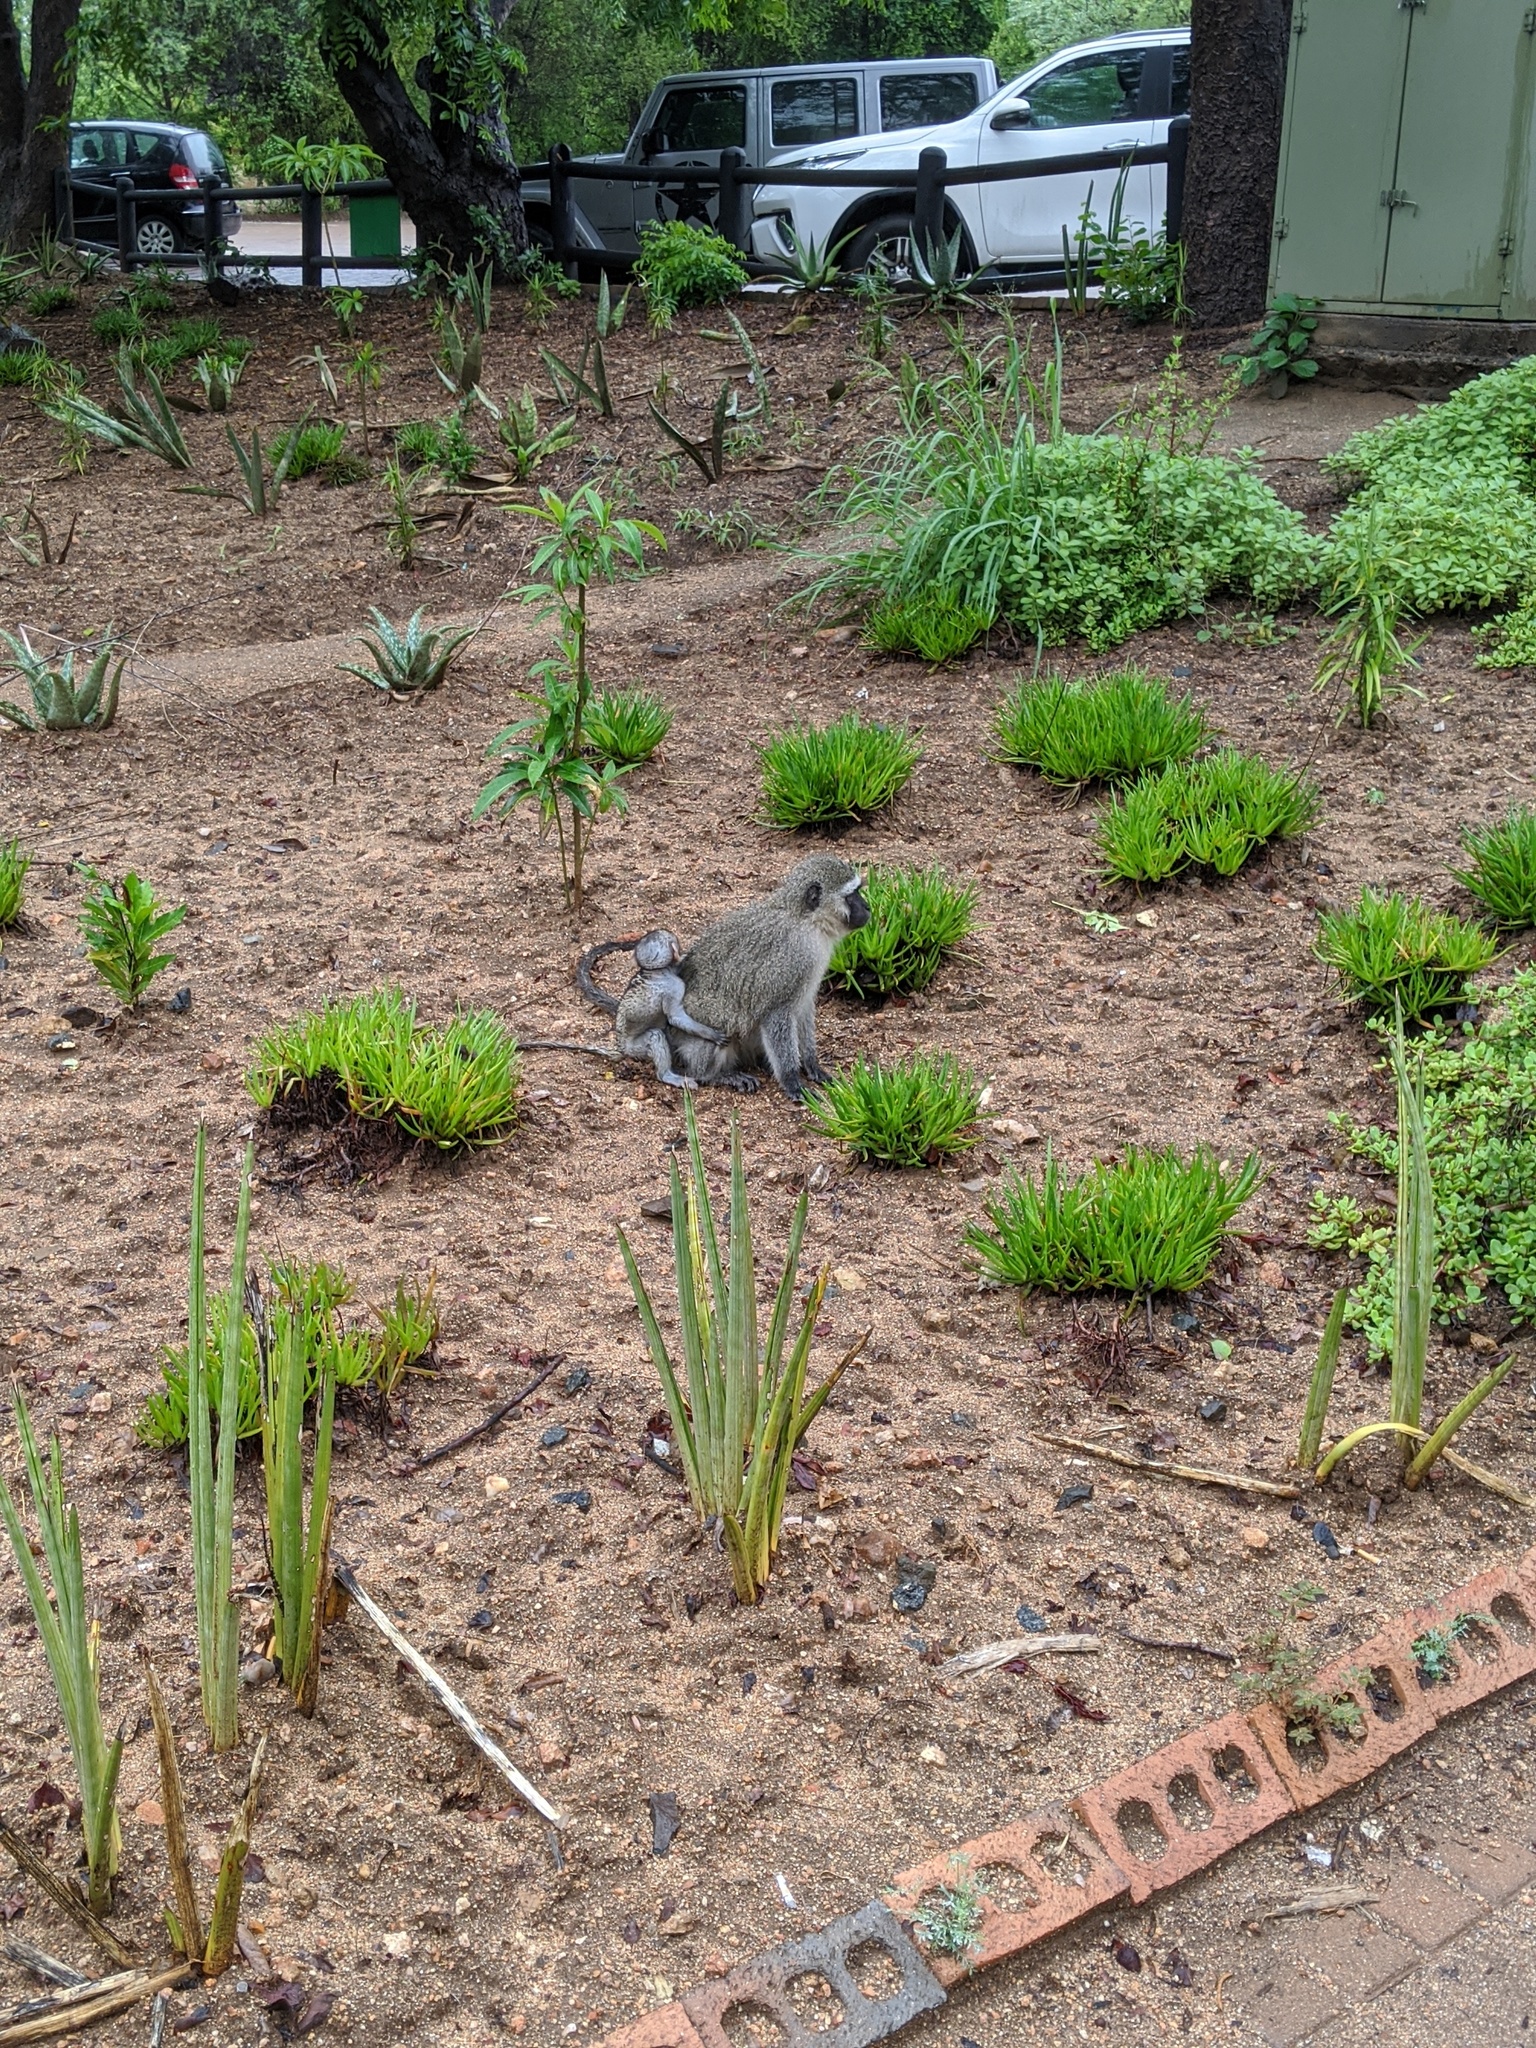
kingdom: Animalia
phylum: Chordata
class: Mammalia
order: Primates
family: Cercopithecidae
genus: Chlorocebus
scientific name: Chlorocebus pygerythrus
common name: Vervet monkey
